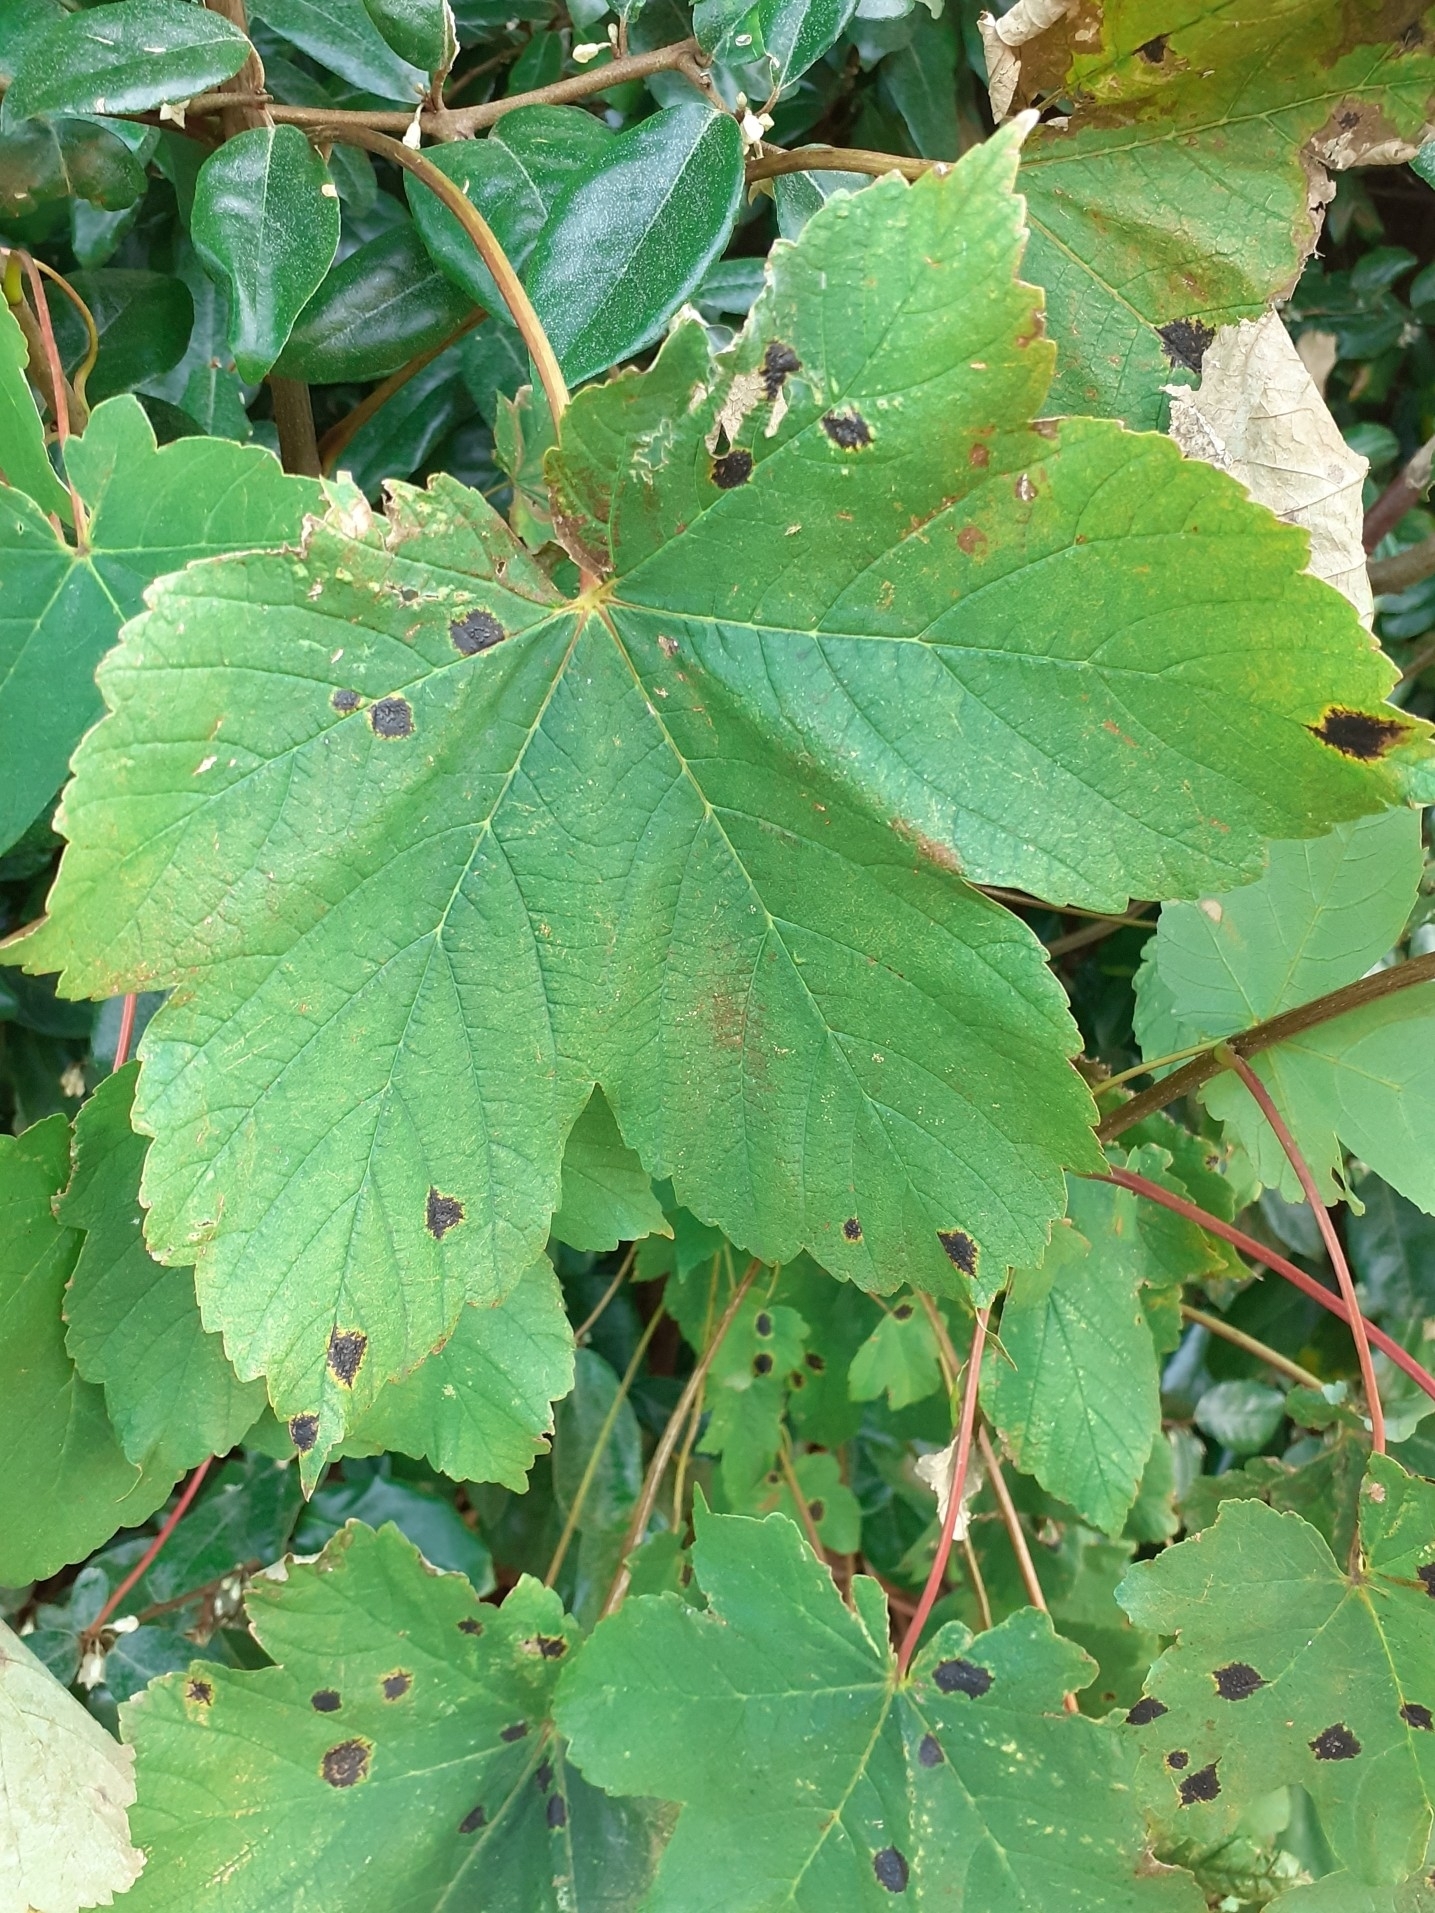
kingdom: Fungi
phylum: Ascomycota
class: Leotiomycetes
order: Rhytismatales
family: Rhytismataceae
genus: Rhytisma
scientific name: Rhytisma acerinum
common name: European tar spot
